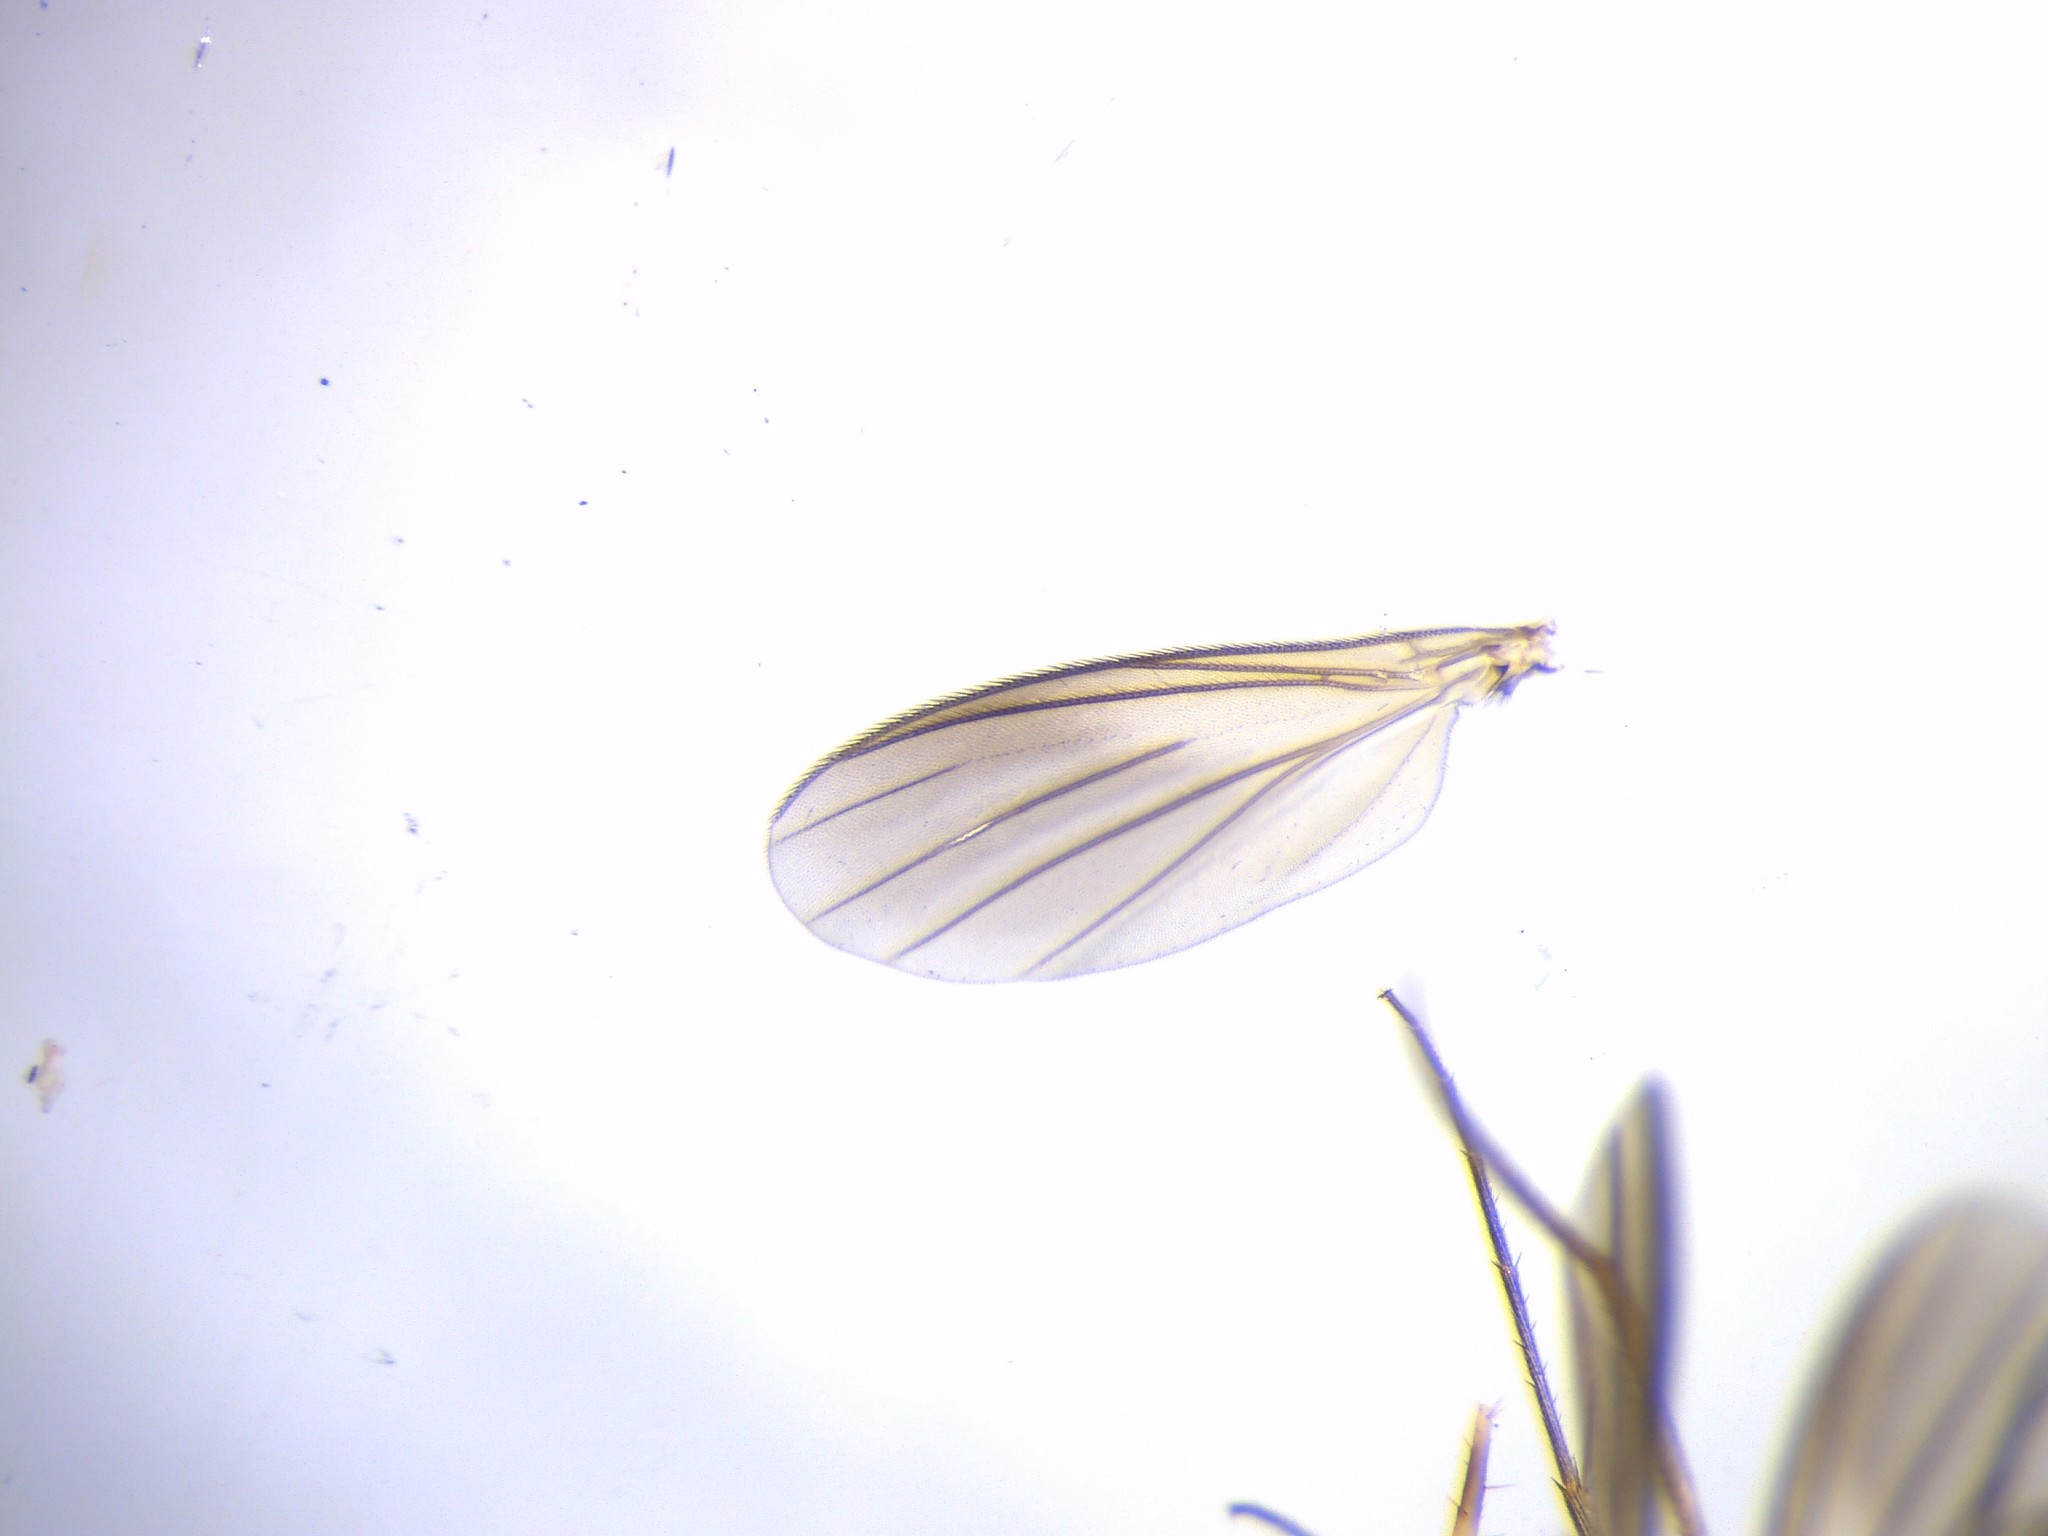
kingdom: Animalia
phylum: Arthropoda
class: Insecta
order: Diptera
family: Mycetophilidae
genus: Manota
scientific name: Manota maorica
